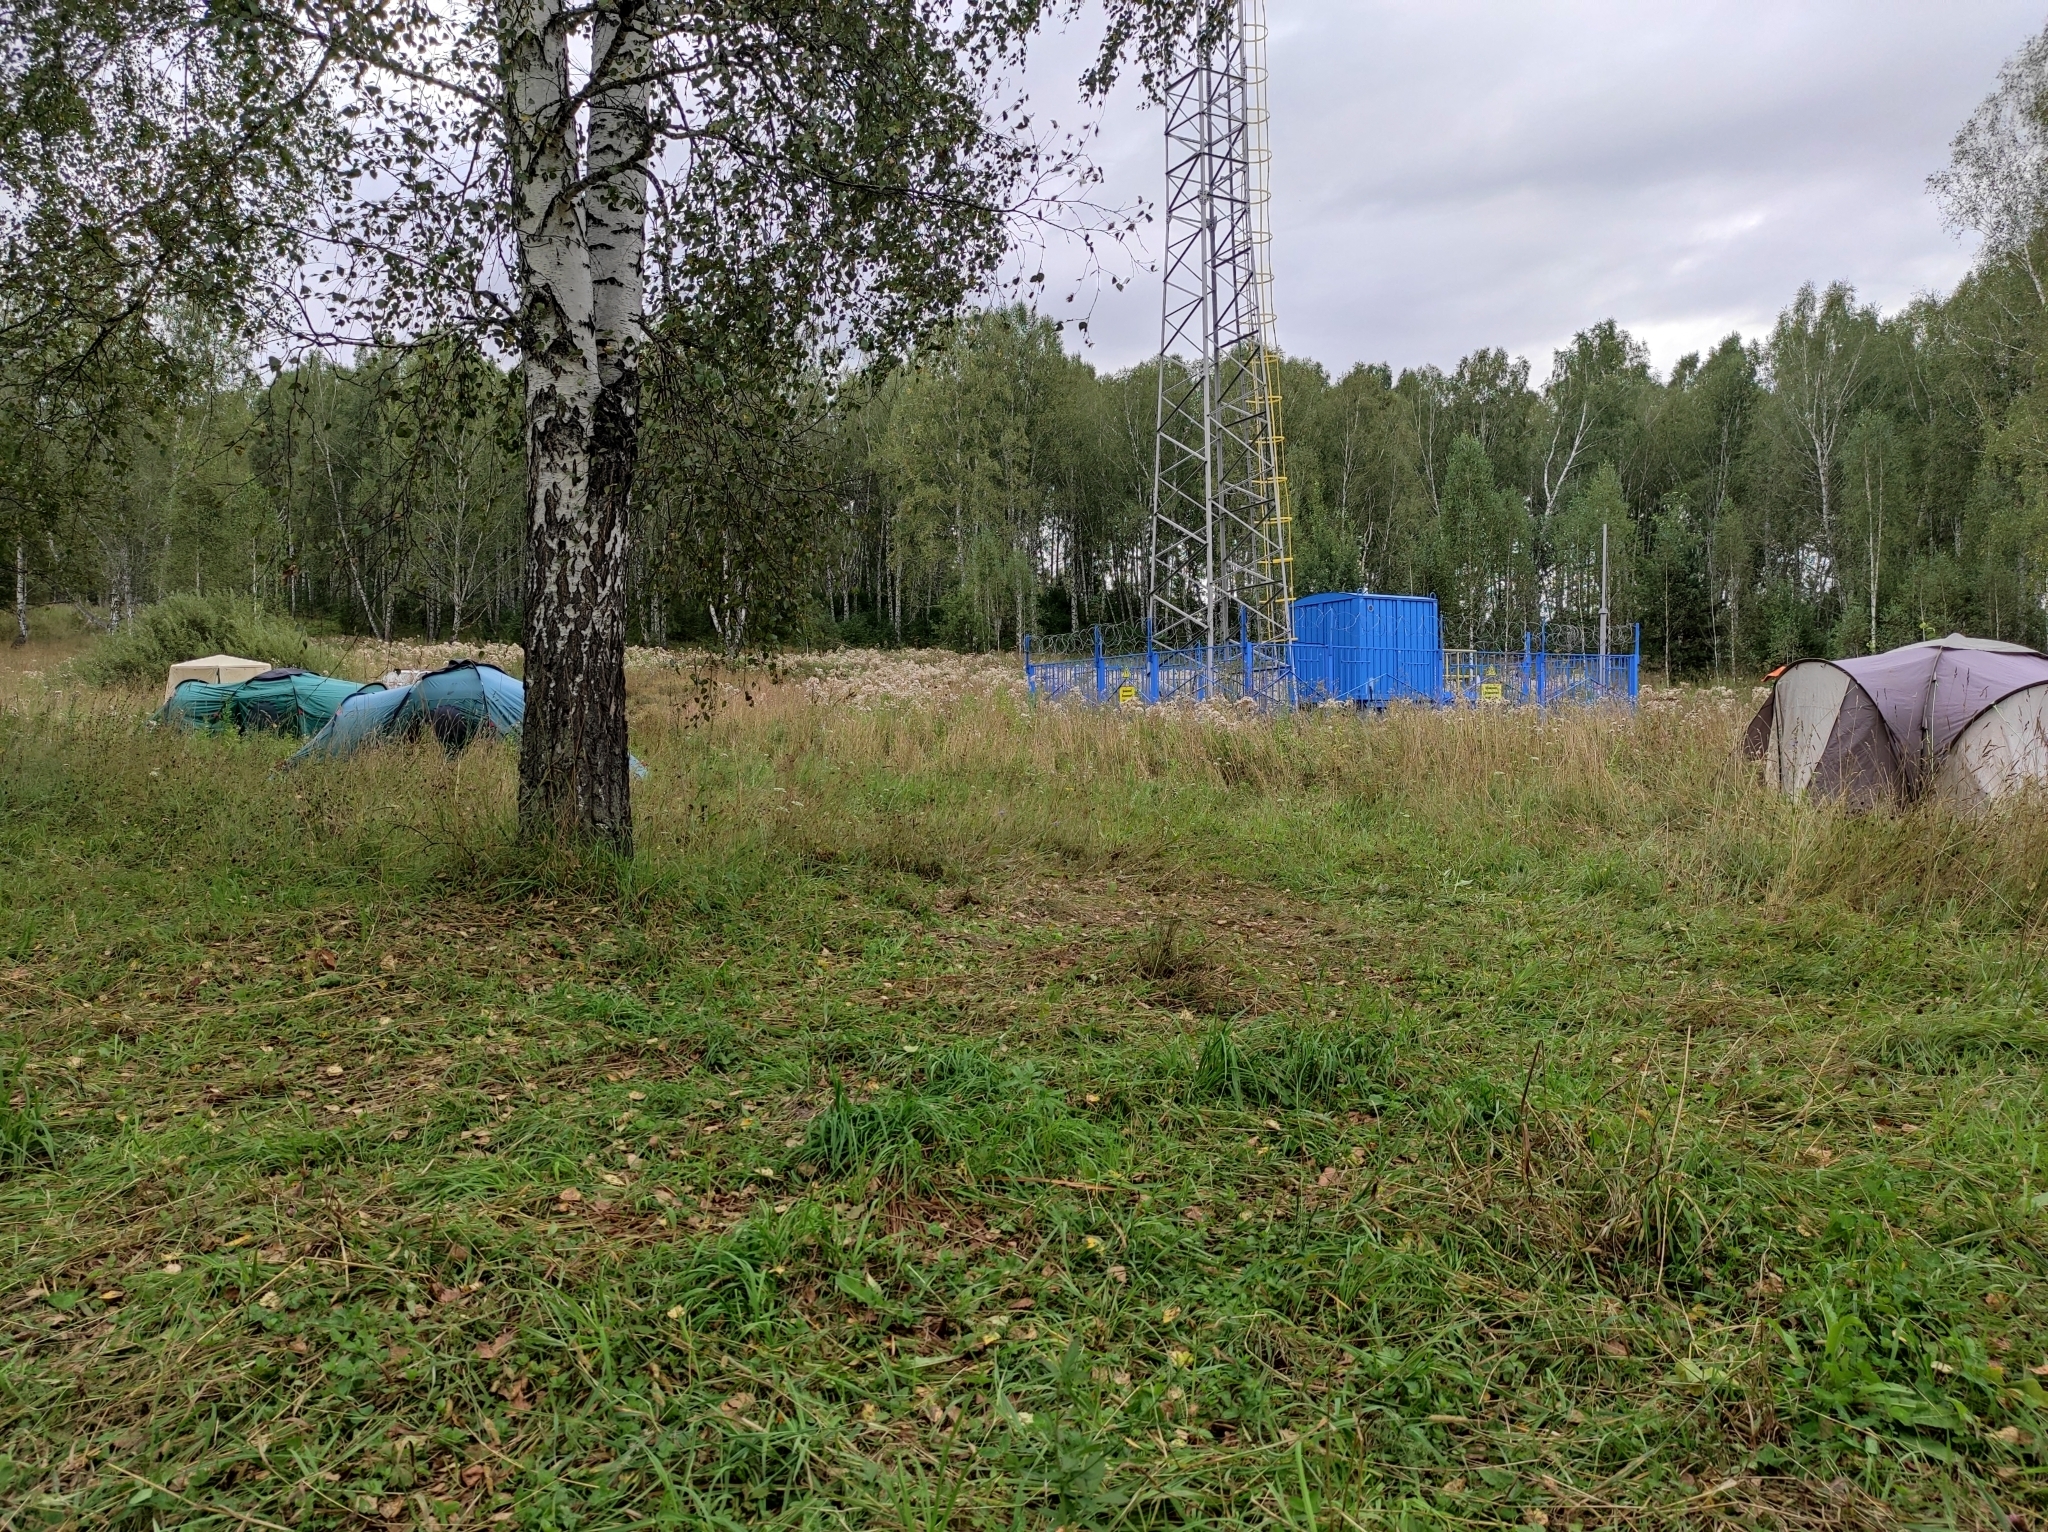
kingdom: Plantae
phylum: Tracheophyta
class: Magnoliopsida
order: Fagales
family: Betulaceae
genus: Betula
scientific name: Betula pendula
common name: Silver birch
